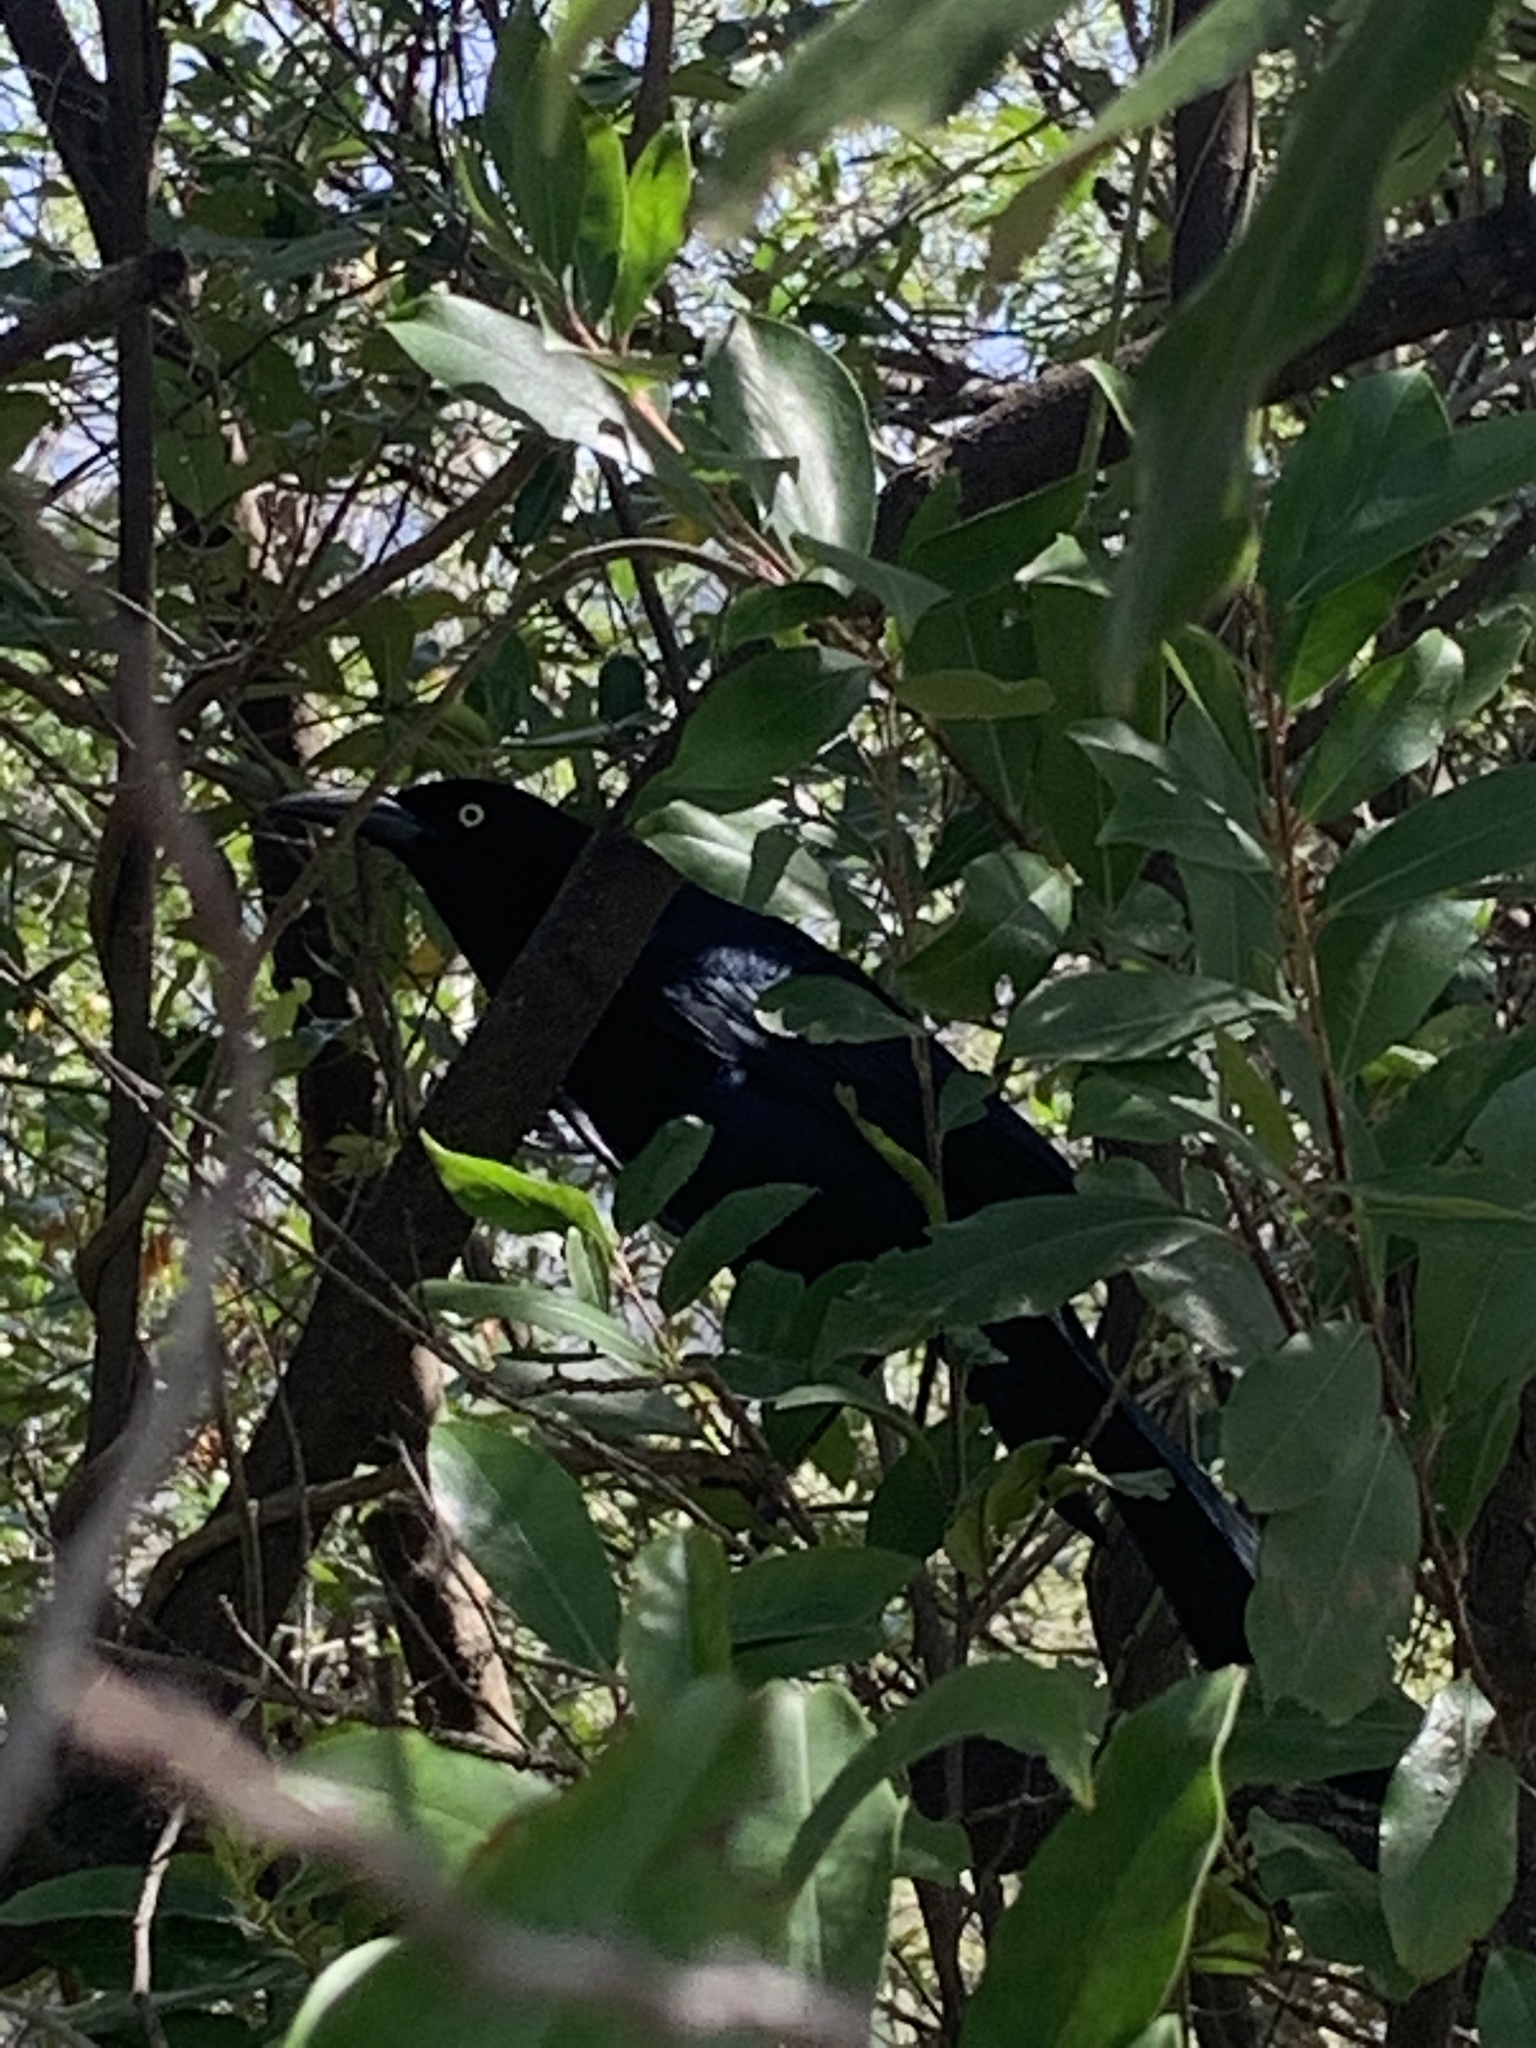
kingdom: Animalia
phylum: Chordata
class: Aves
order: Passeriformes
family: Icteridae
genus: Quiscalus
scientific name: Quiscalus mexicanus
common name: Great-tailed grackle
